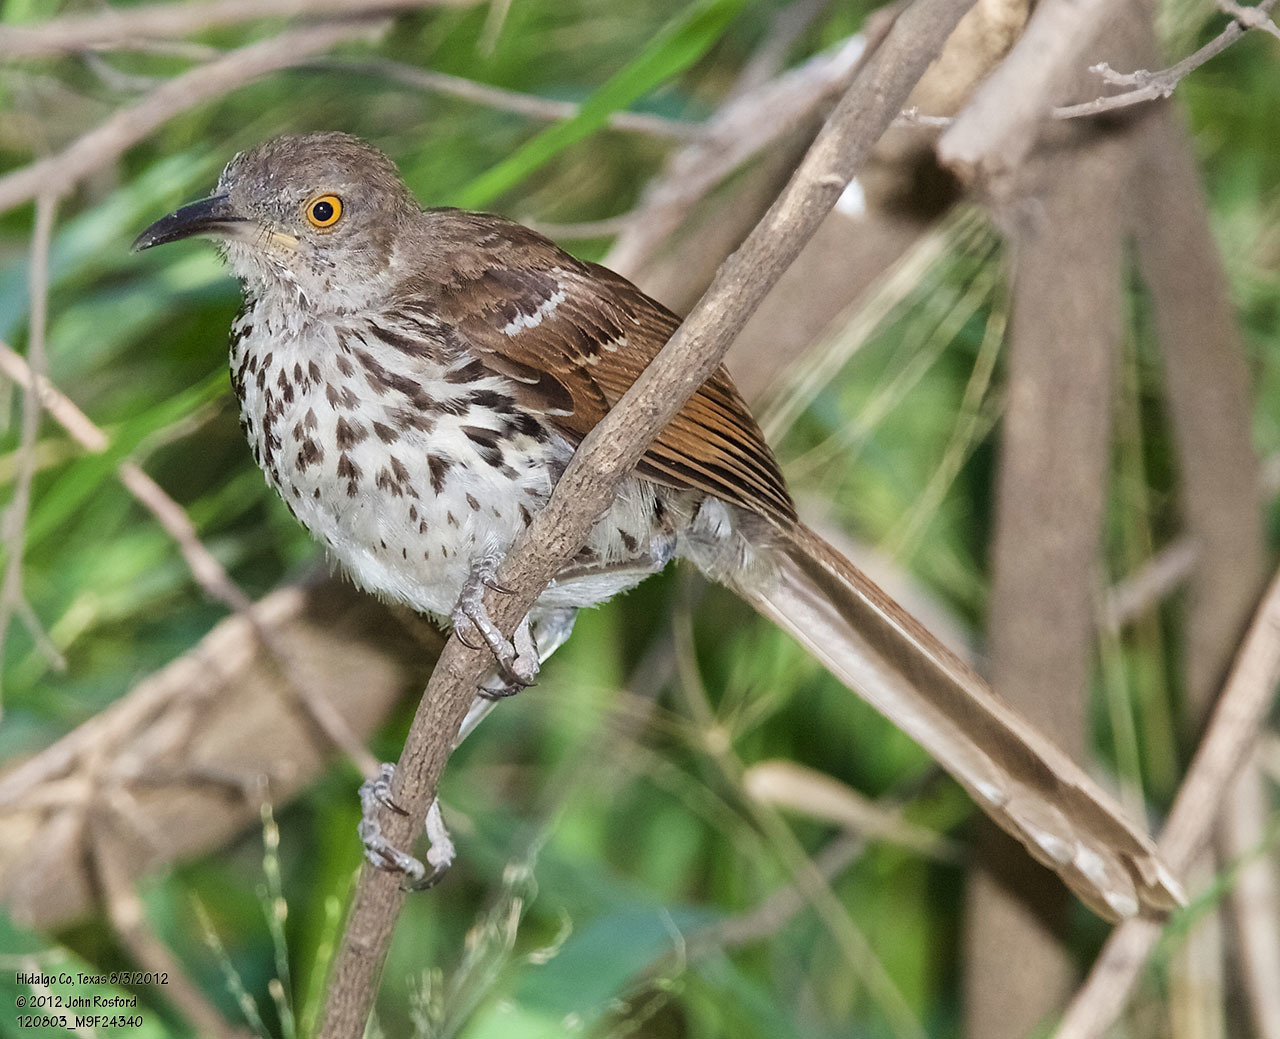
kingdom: Animalia
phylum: Chordata
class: Aves
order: Passeriformes
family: Mimidae
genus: Toxostoma
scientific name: Toxostoma longirostre
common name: Long-billed thrasher
